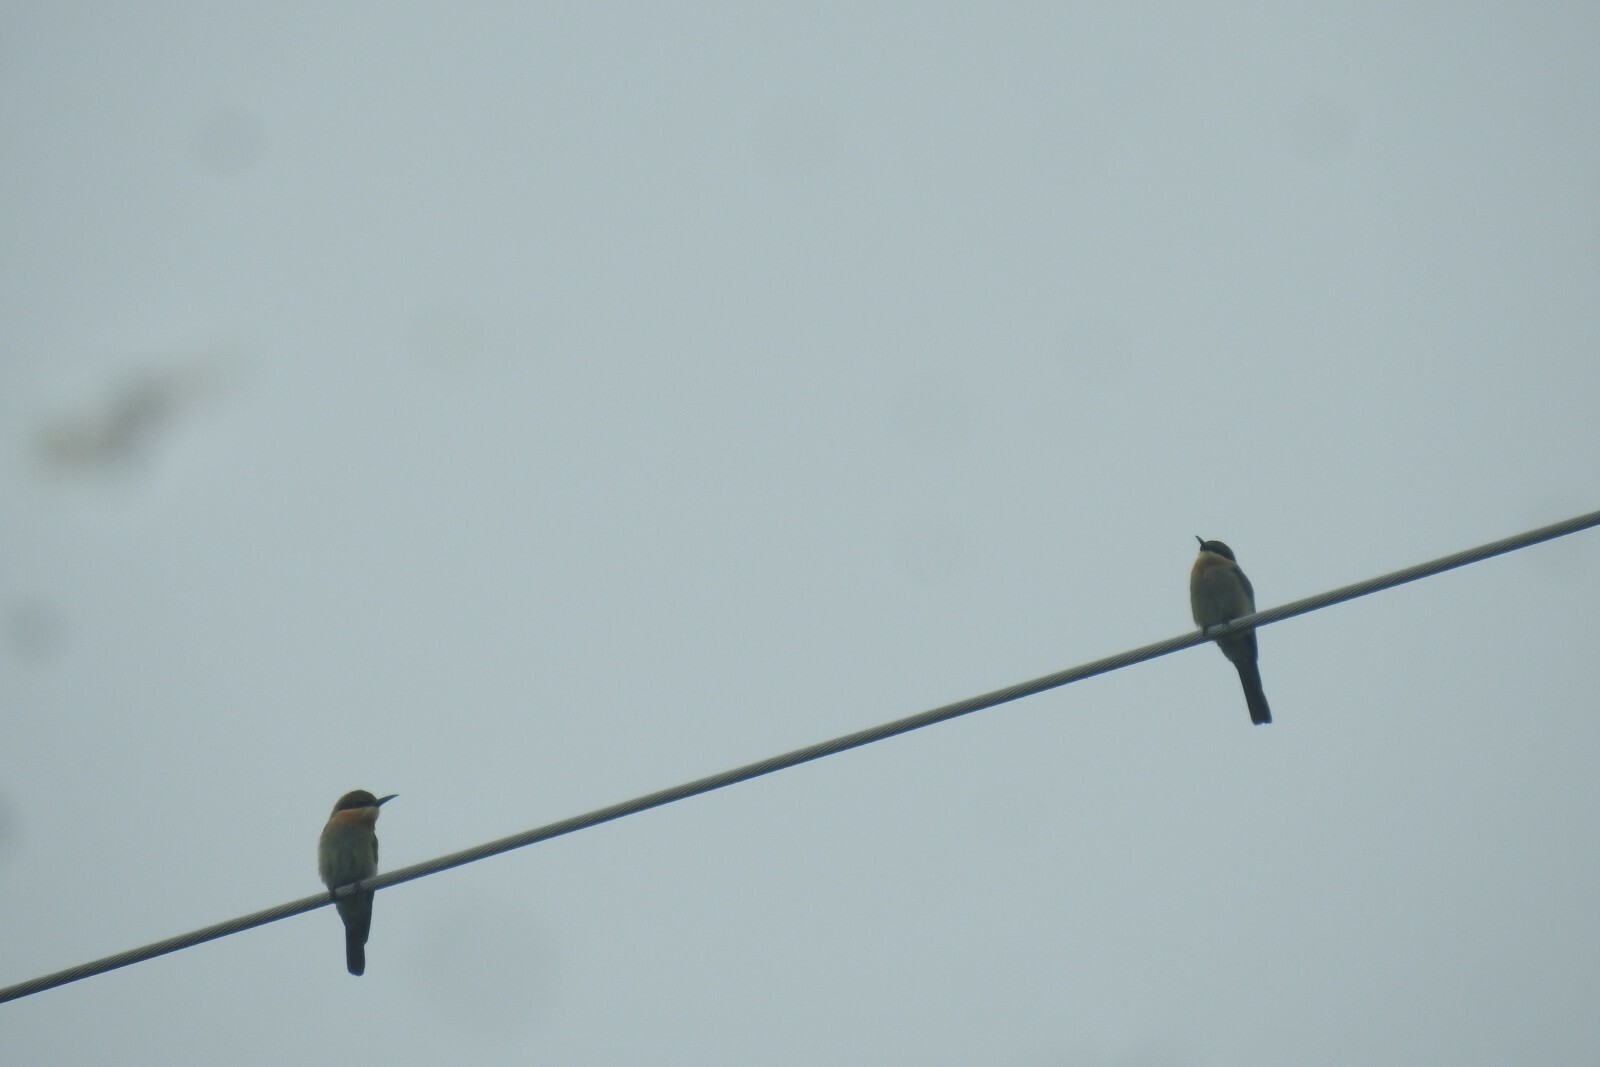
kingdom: Animalia
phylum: Chordata
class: Aves
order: Coraciiformes
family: Meropidae
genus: Merops
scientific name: Merops philippinus
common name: Blue-tailed bee-eater
